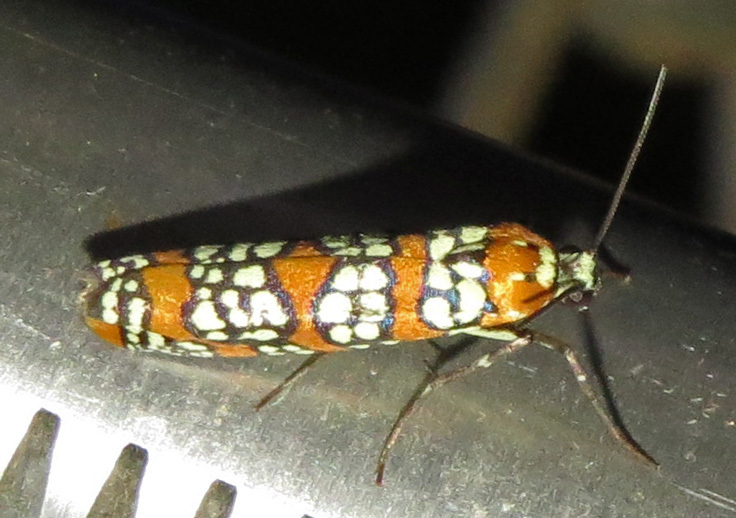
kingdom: Animalia
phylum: Arthropoda
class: Insecta
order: Lepidoptera
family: Attevidae
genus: Atteva
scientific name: Atteva punctella
